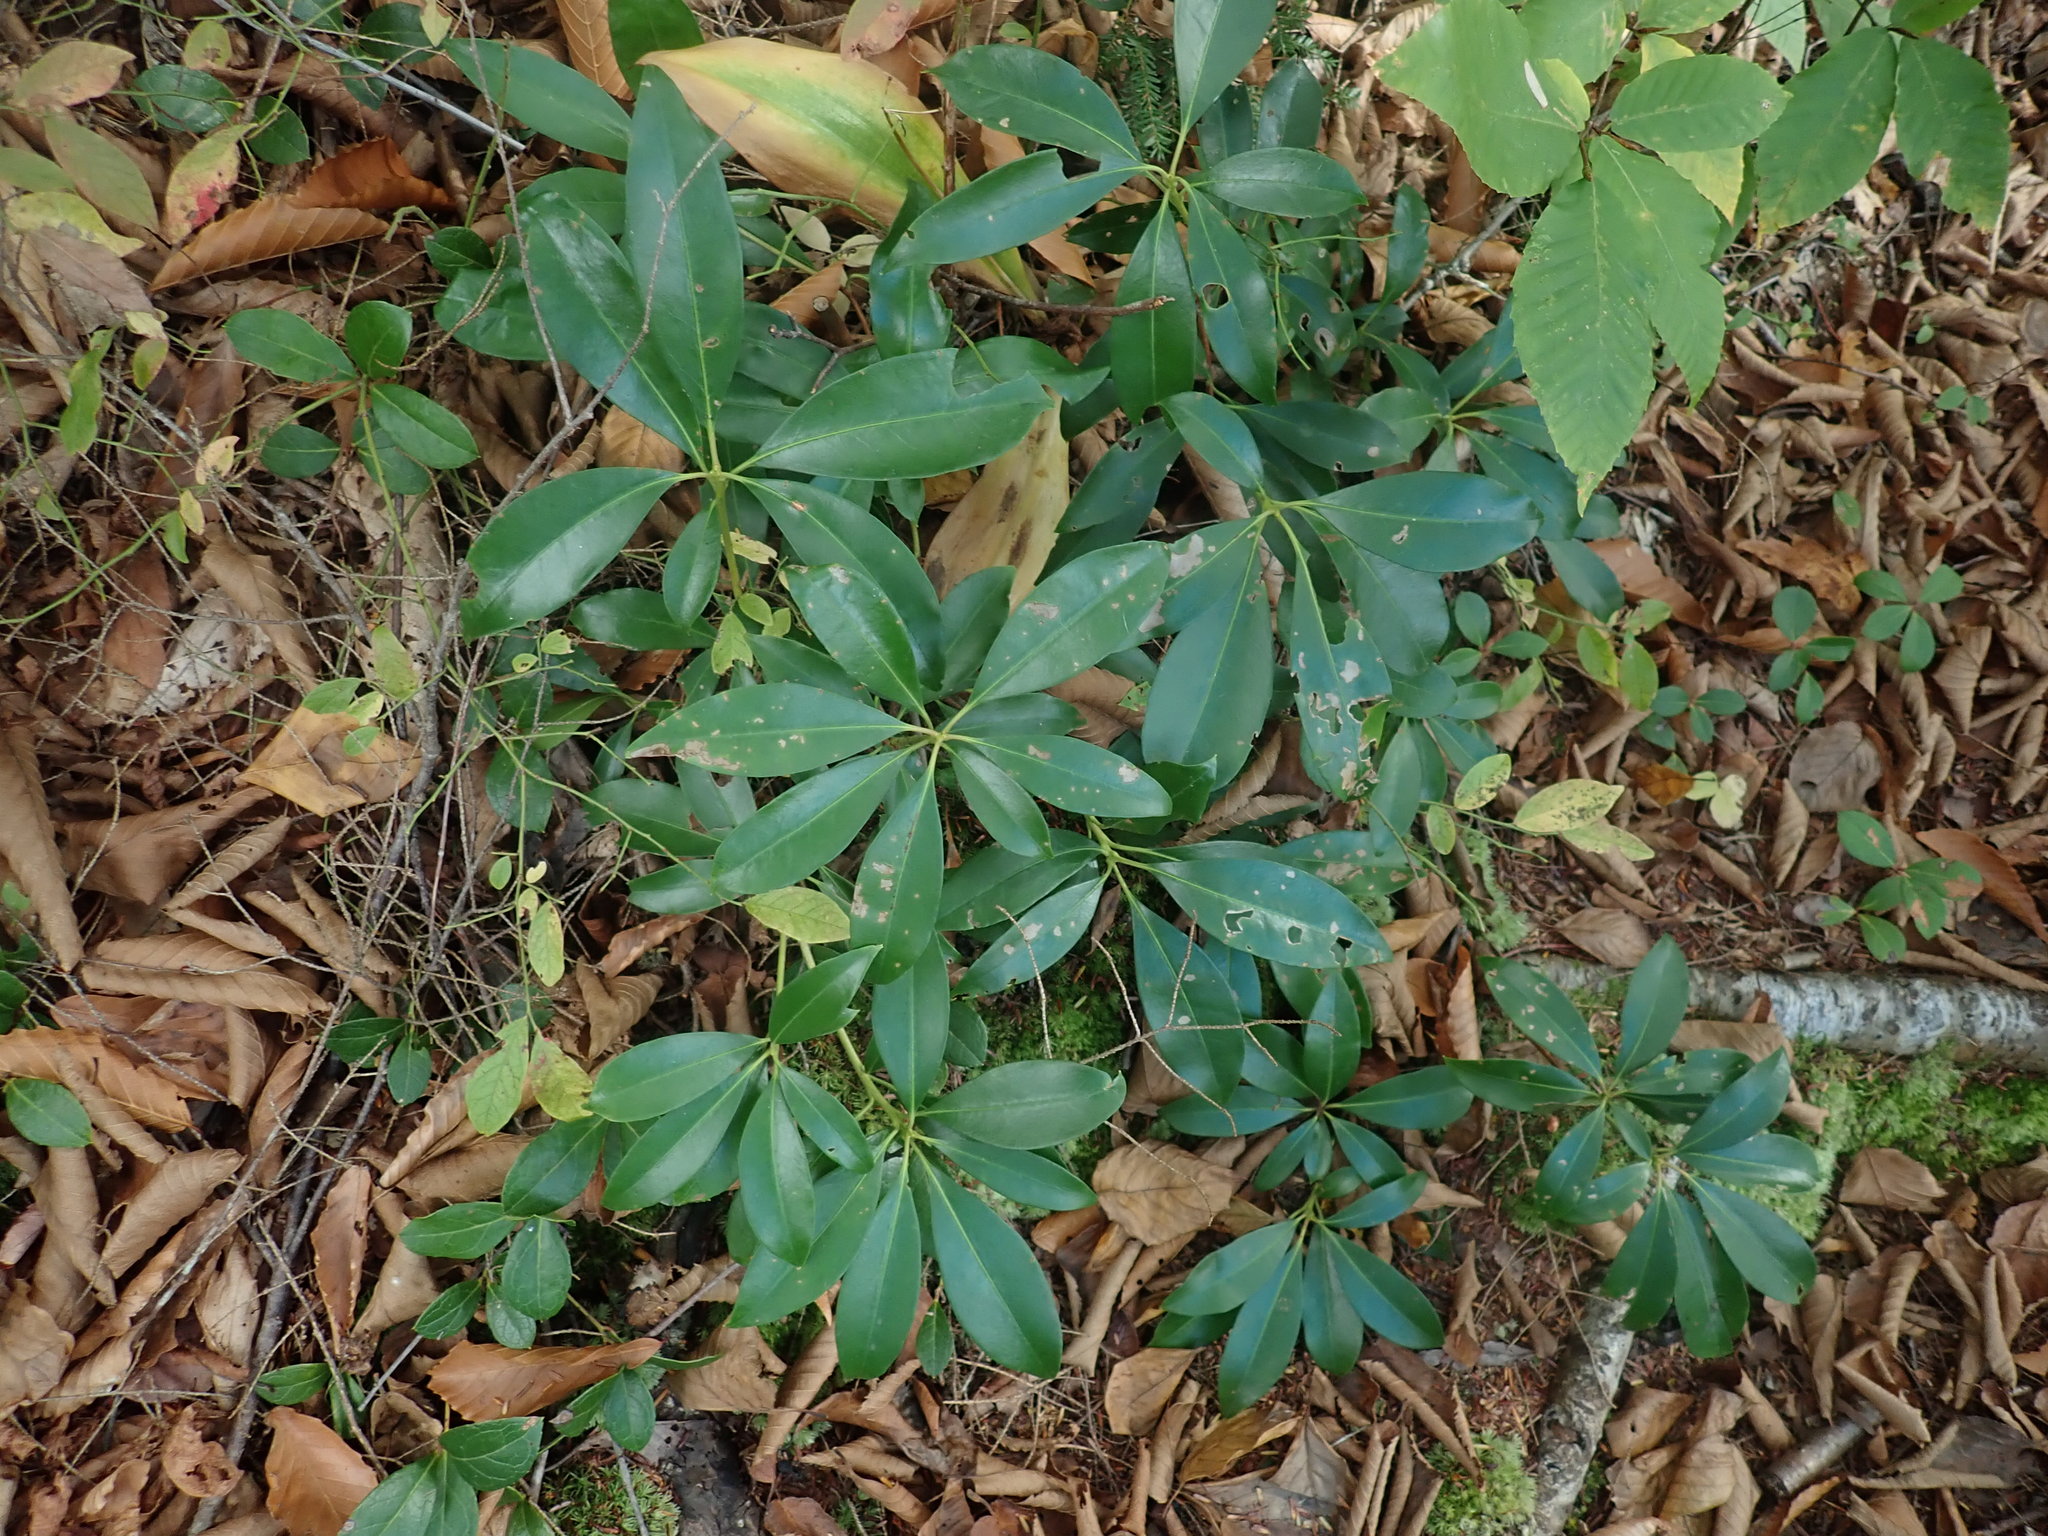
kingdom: Plantae
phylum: Tracheophyta
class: Magnoliopsida
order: Ericales
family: Ericaceae
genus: Kalmia
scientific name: Kalmia latifolia
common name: Mountain-laurel
